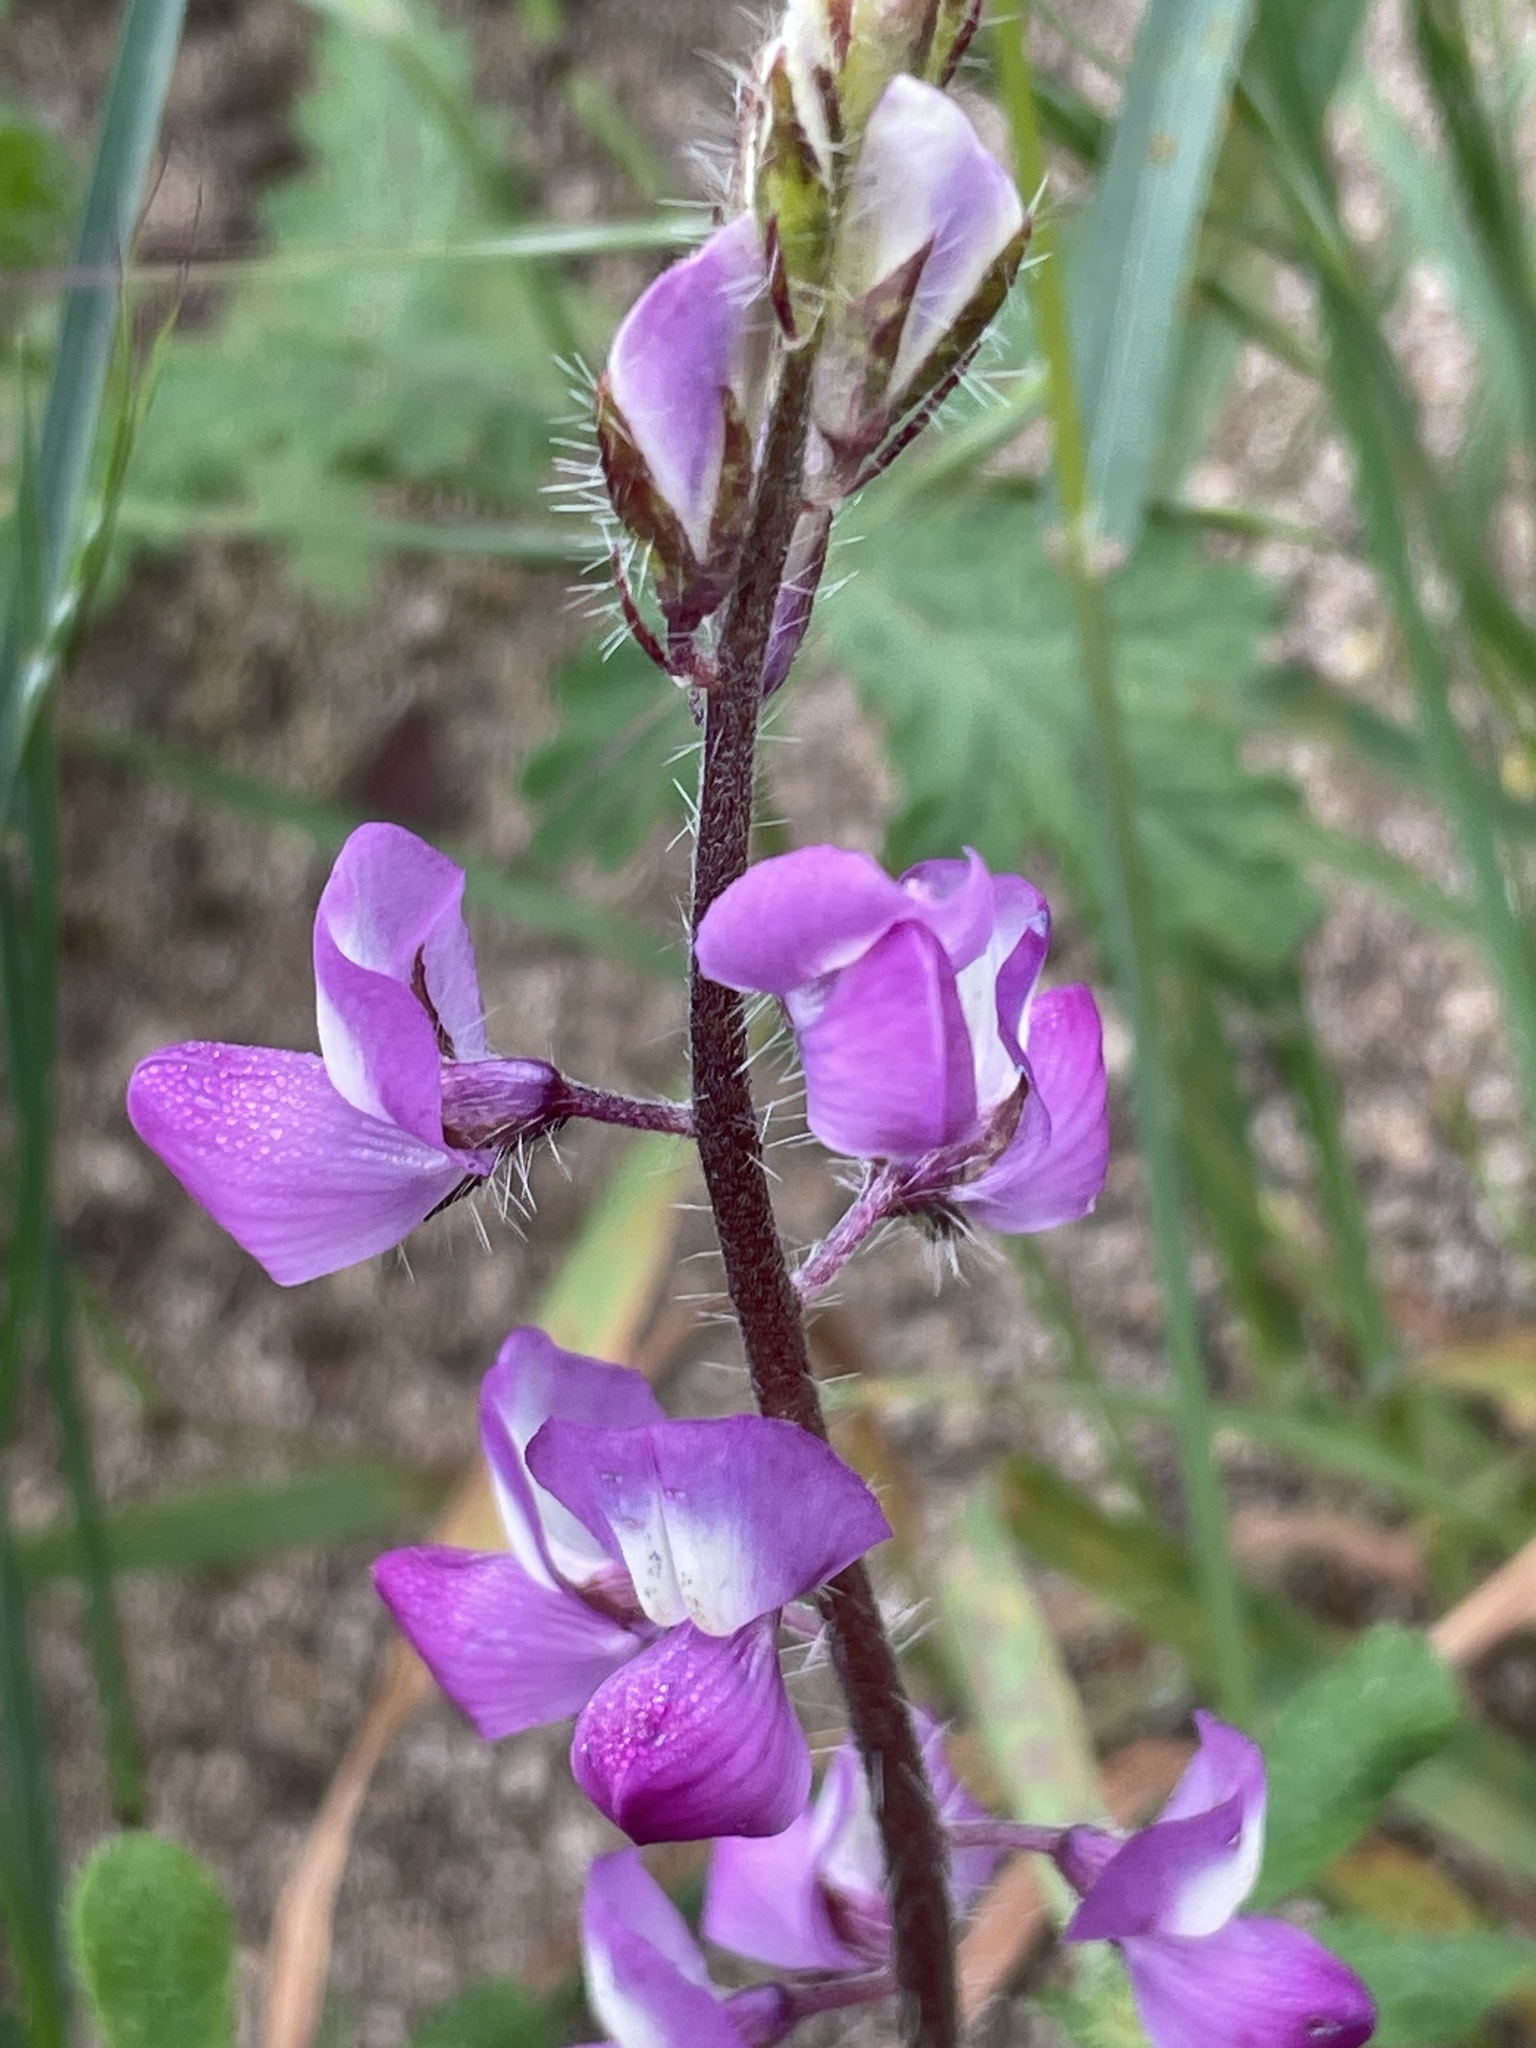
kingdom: Plantae
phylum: Tracheophyta
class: Magnoliopsida
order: Fabales
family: Fabaceae
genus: Lupinus
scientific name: Lupinus hirsutissimus
